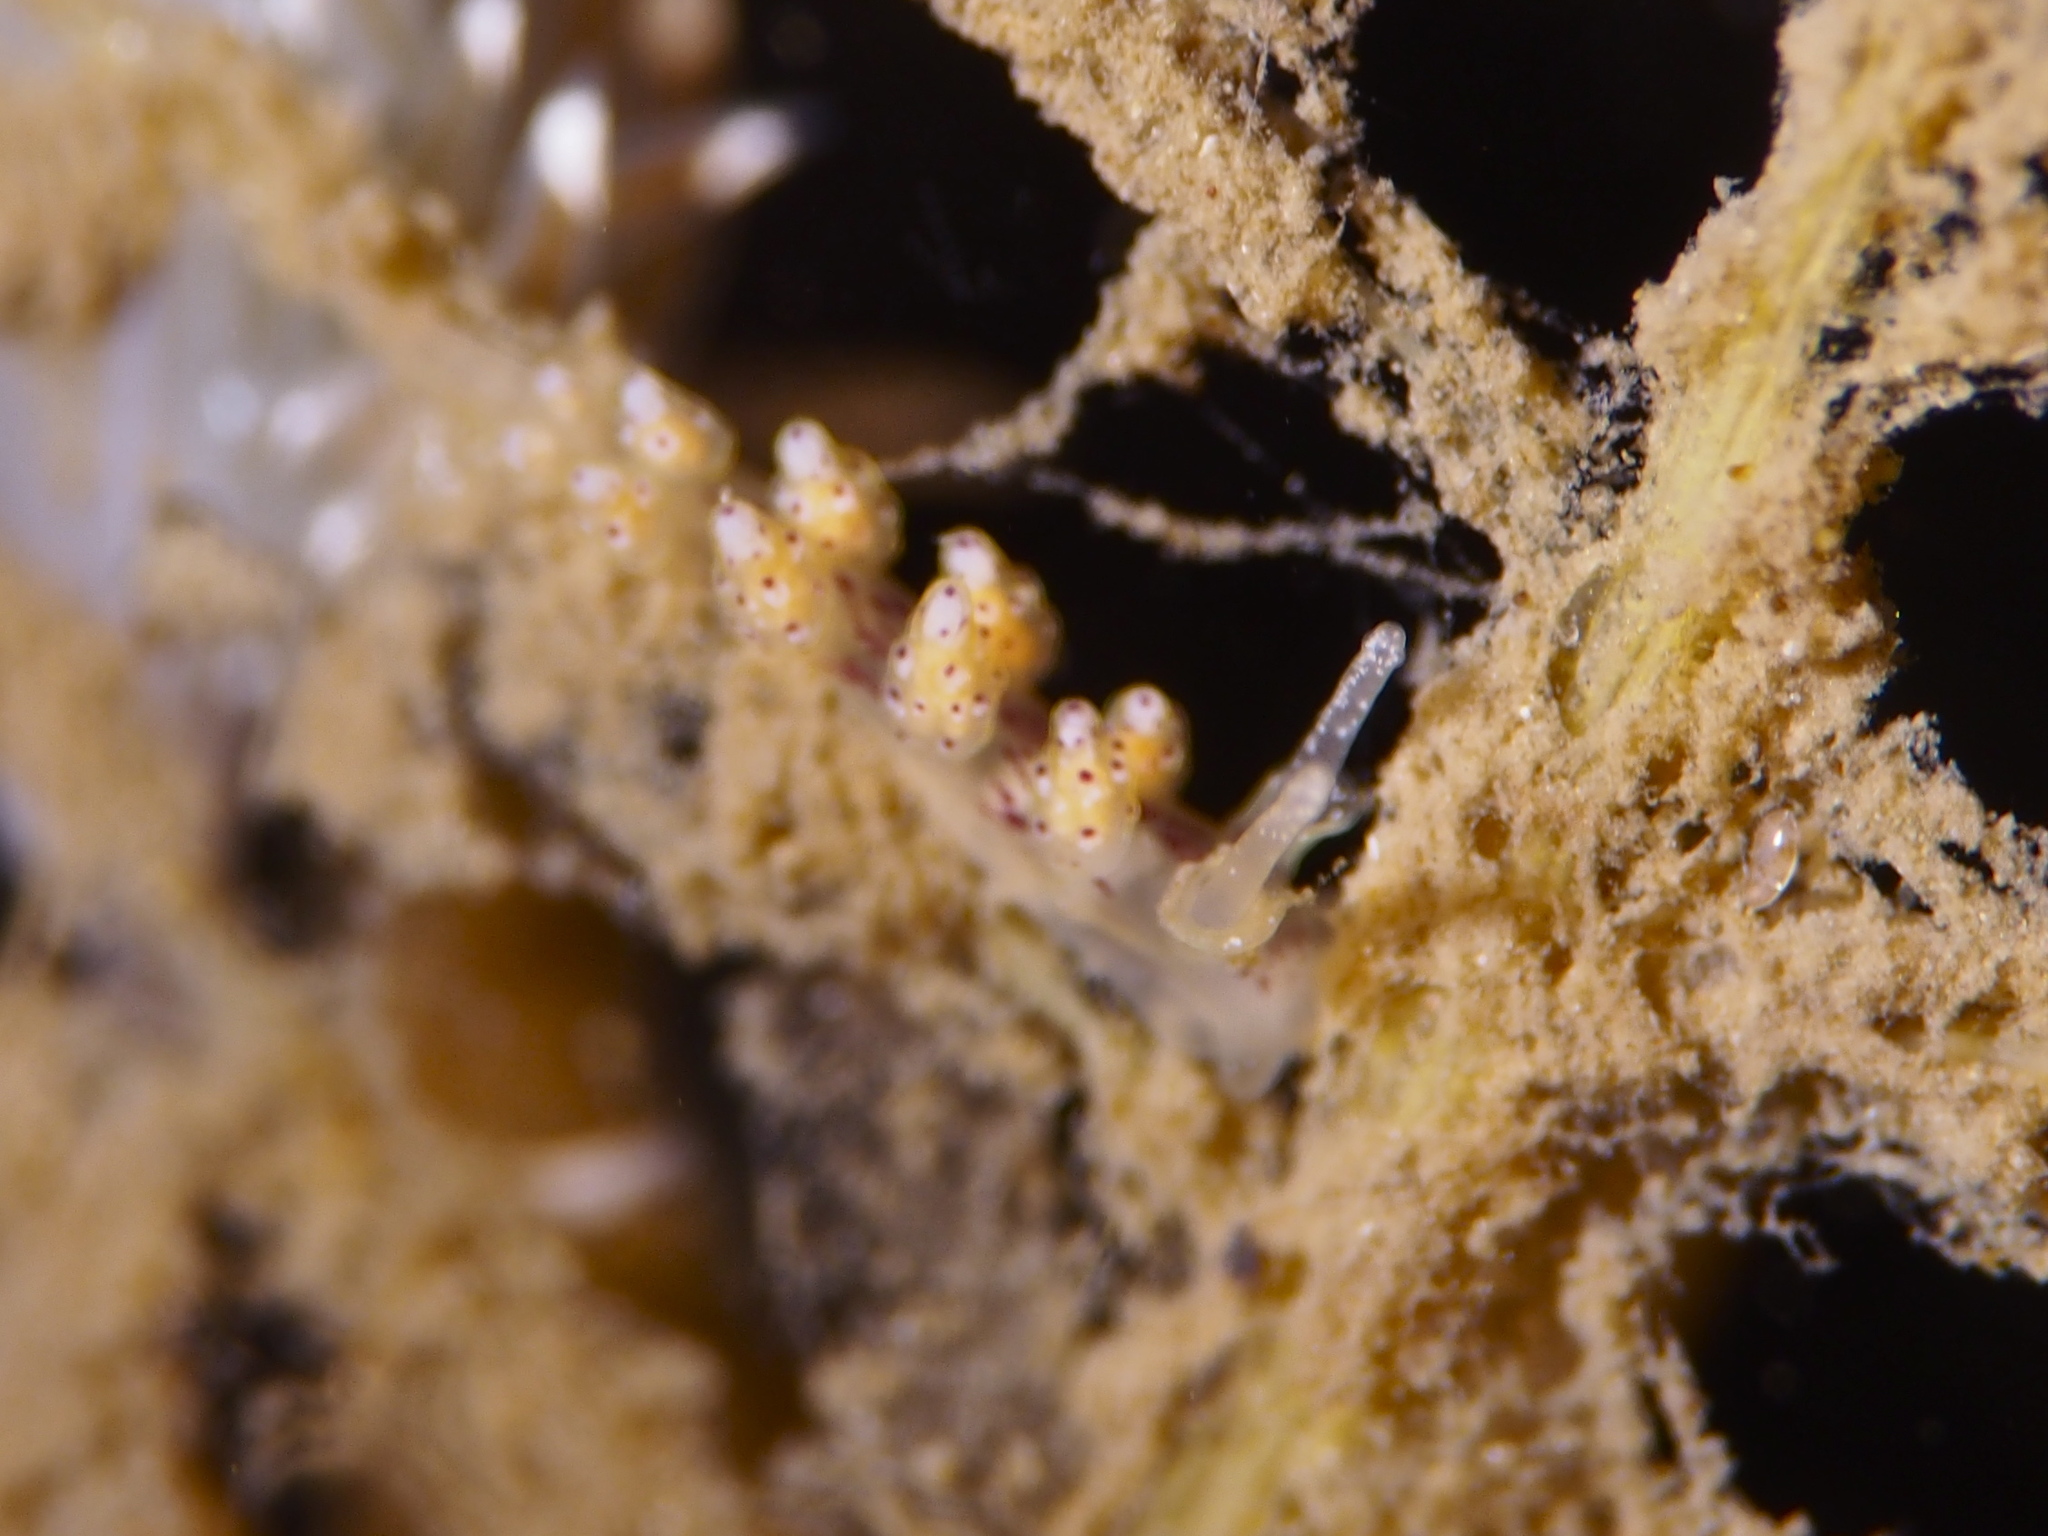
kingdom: Animalia
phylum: Mollusca
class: Gastropoda
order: Nudibranchia
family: Dotidae
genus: Doto
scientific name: Doto dunnei
